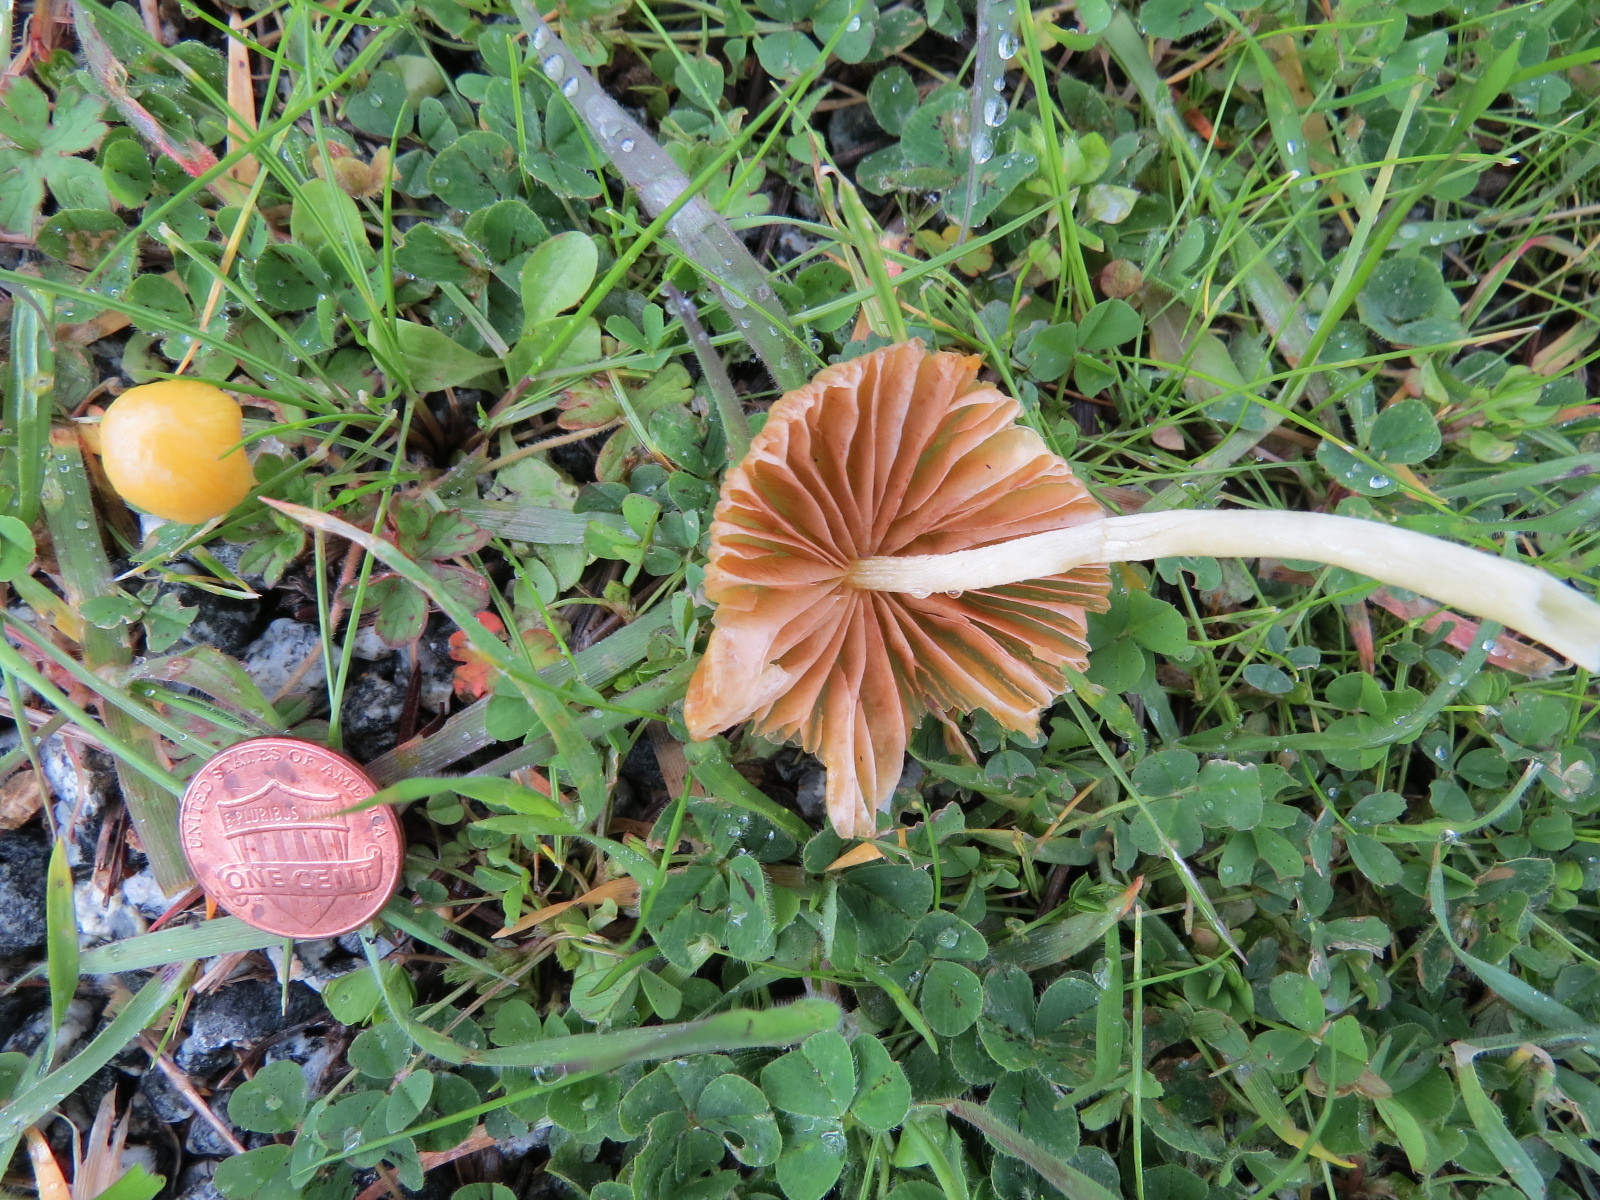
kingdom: Fungi
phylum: Basidiomycota
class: Agaricomycetes
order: Agaricales
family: Bolbitiaceae
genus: Bolbitius
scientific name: Bolbitius titubans
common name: Yellow fieldcap
